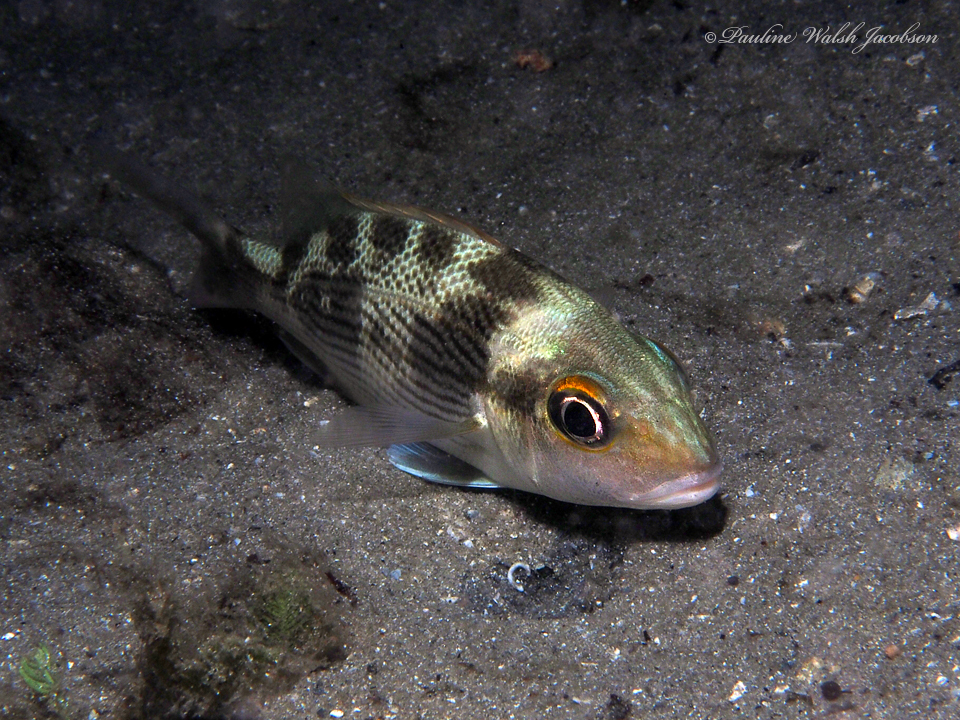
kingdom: Animalia
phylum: Chordata
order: Perciformes
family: Haemulidae
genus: Haemulon
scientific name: Haemulon parra
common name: Sailor's choice
